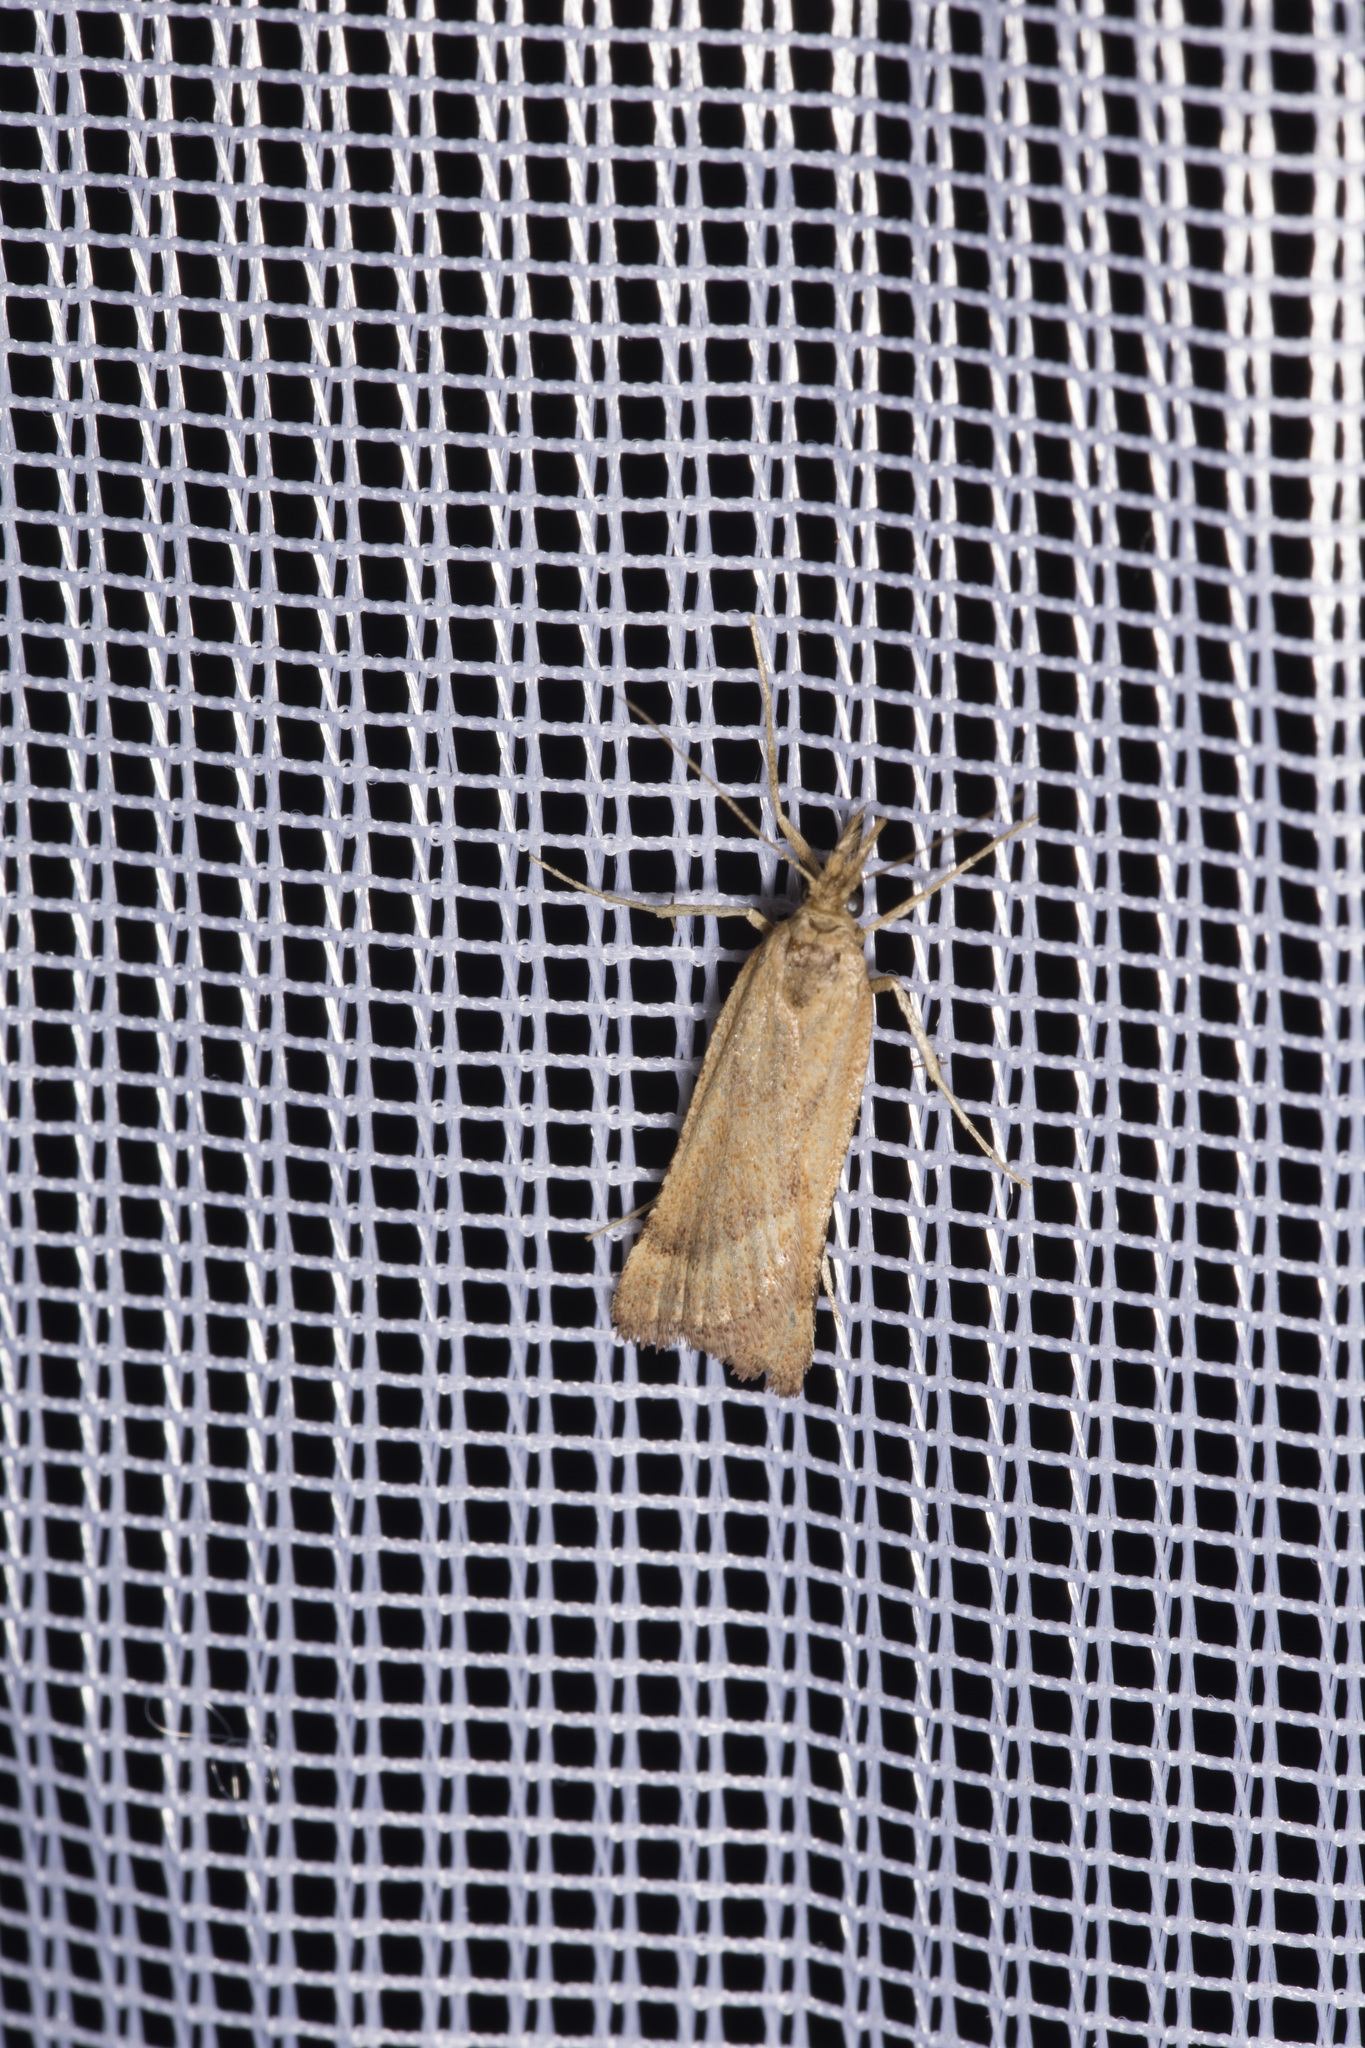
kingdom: Animalia
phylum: Arthropoda
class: Insecta
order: Lepidoptera
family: Pyralidae
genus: Synaphe
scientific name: Synaphe punctalis
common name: Long-legged tabby
